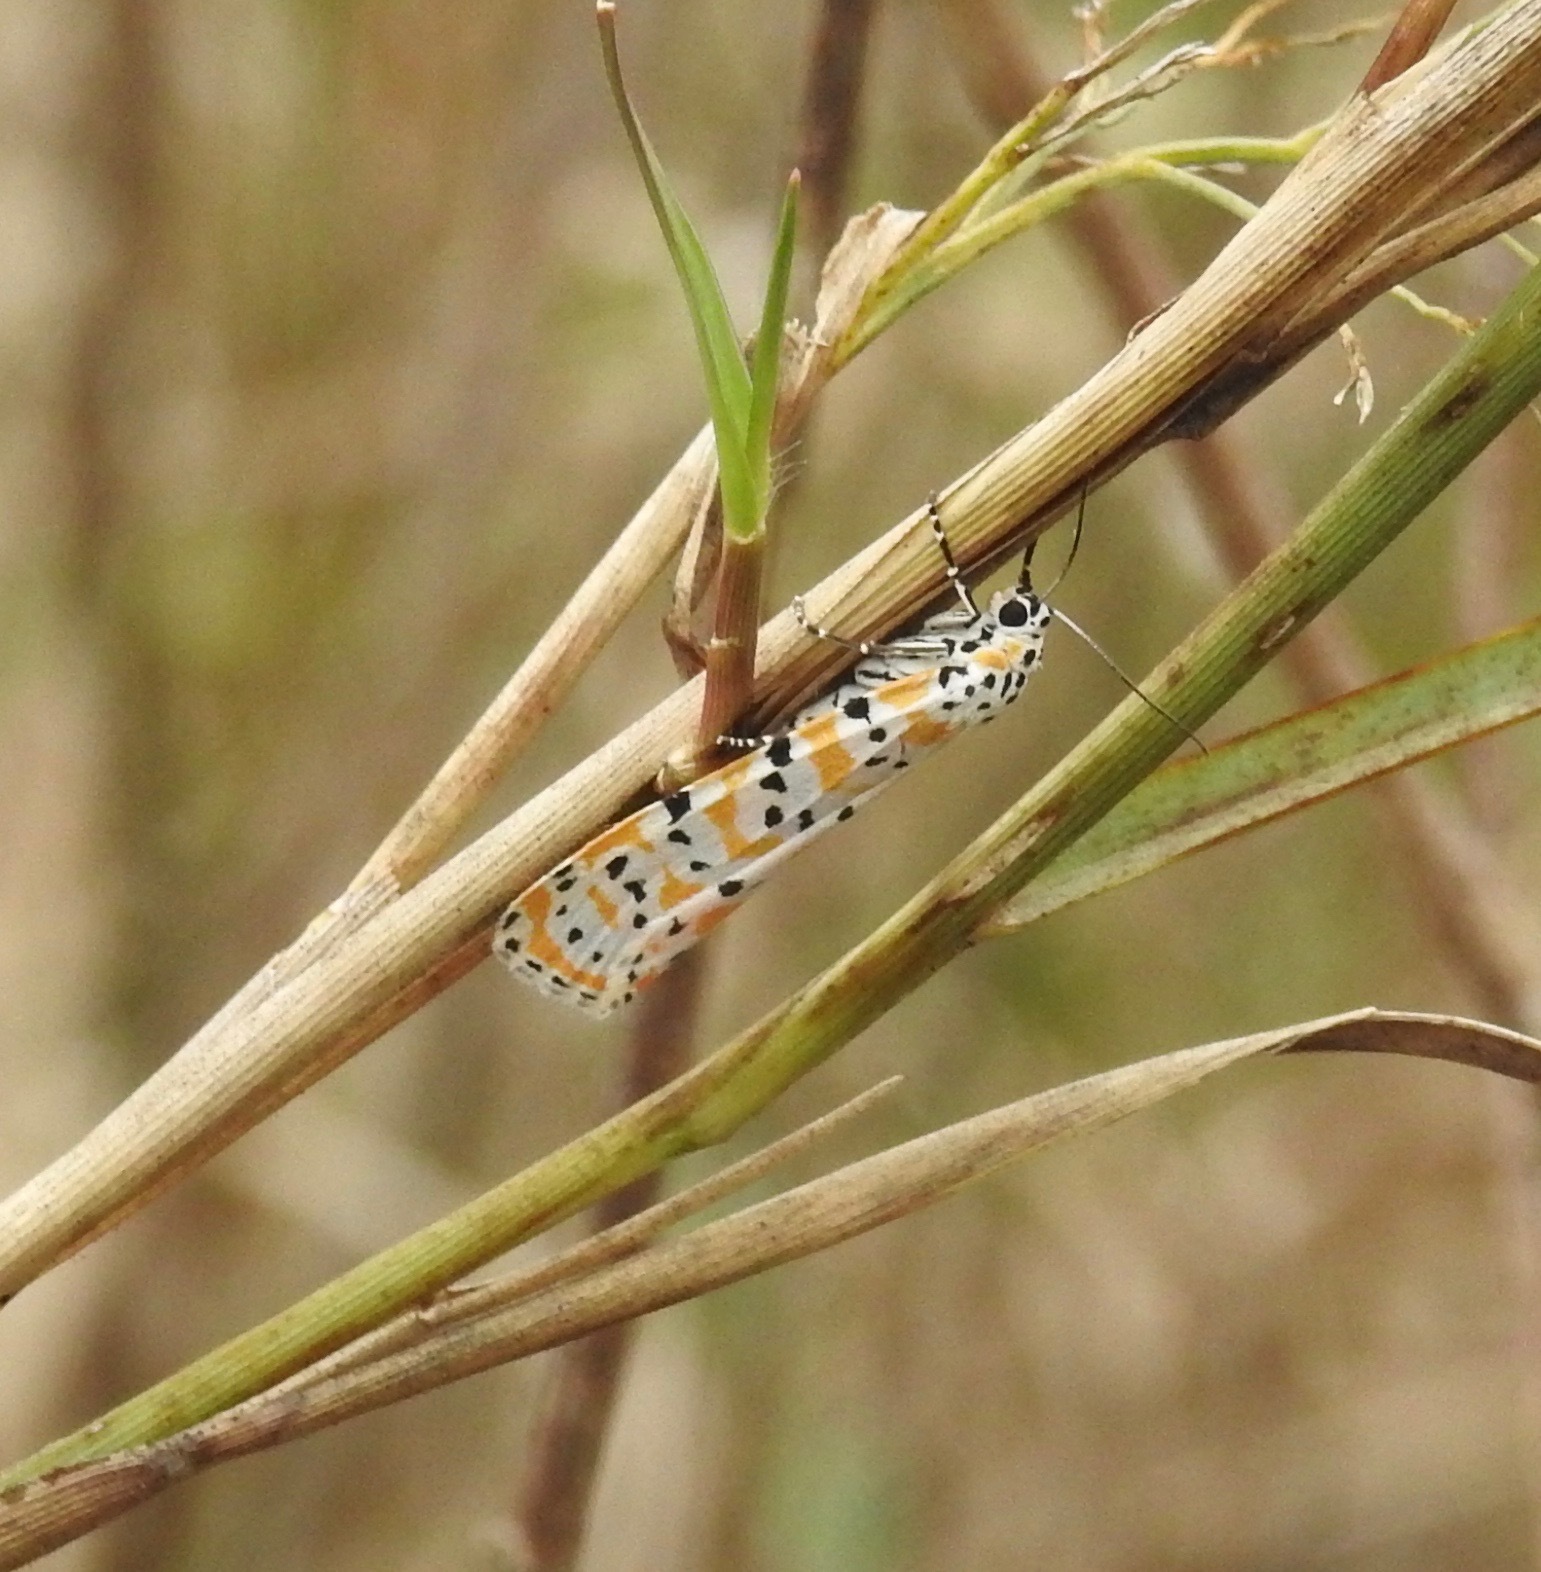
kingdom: Animalia
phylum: Arthropoda
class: Insecta
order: Lepidoptera
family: Erebidae
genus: Utetheisa
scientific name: Utetheisa ornatrix
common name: Beautiful utetheisa
